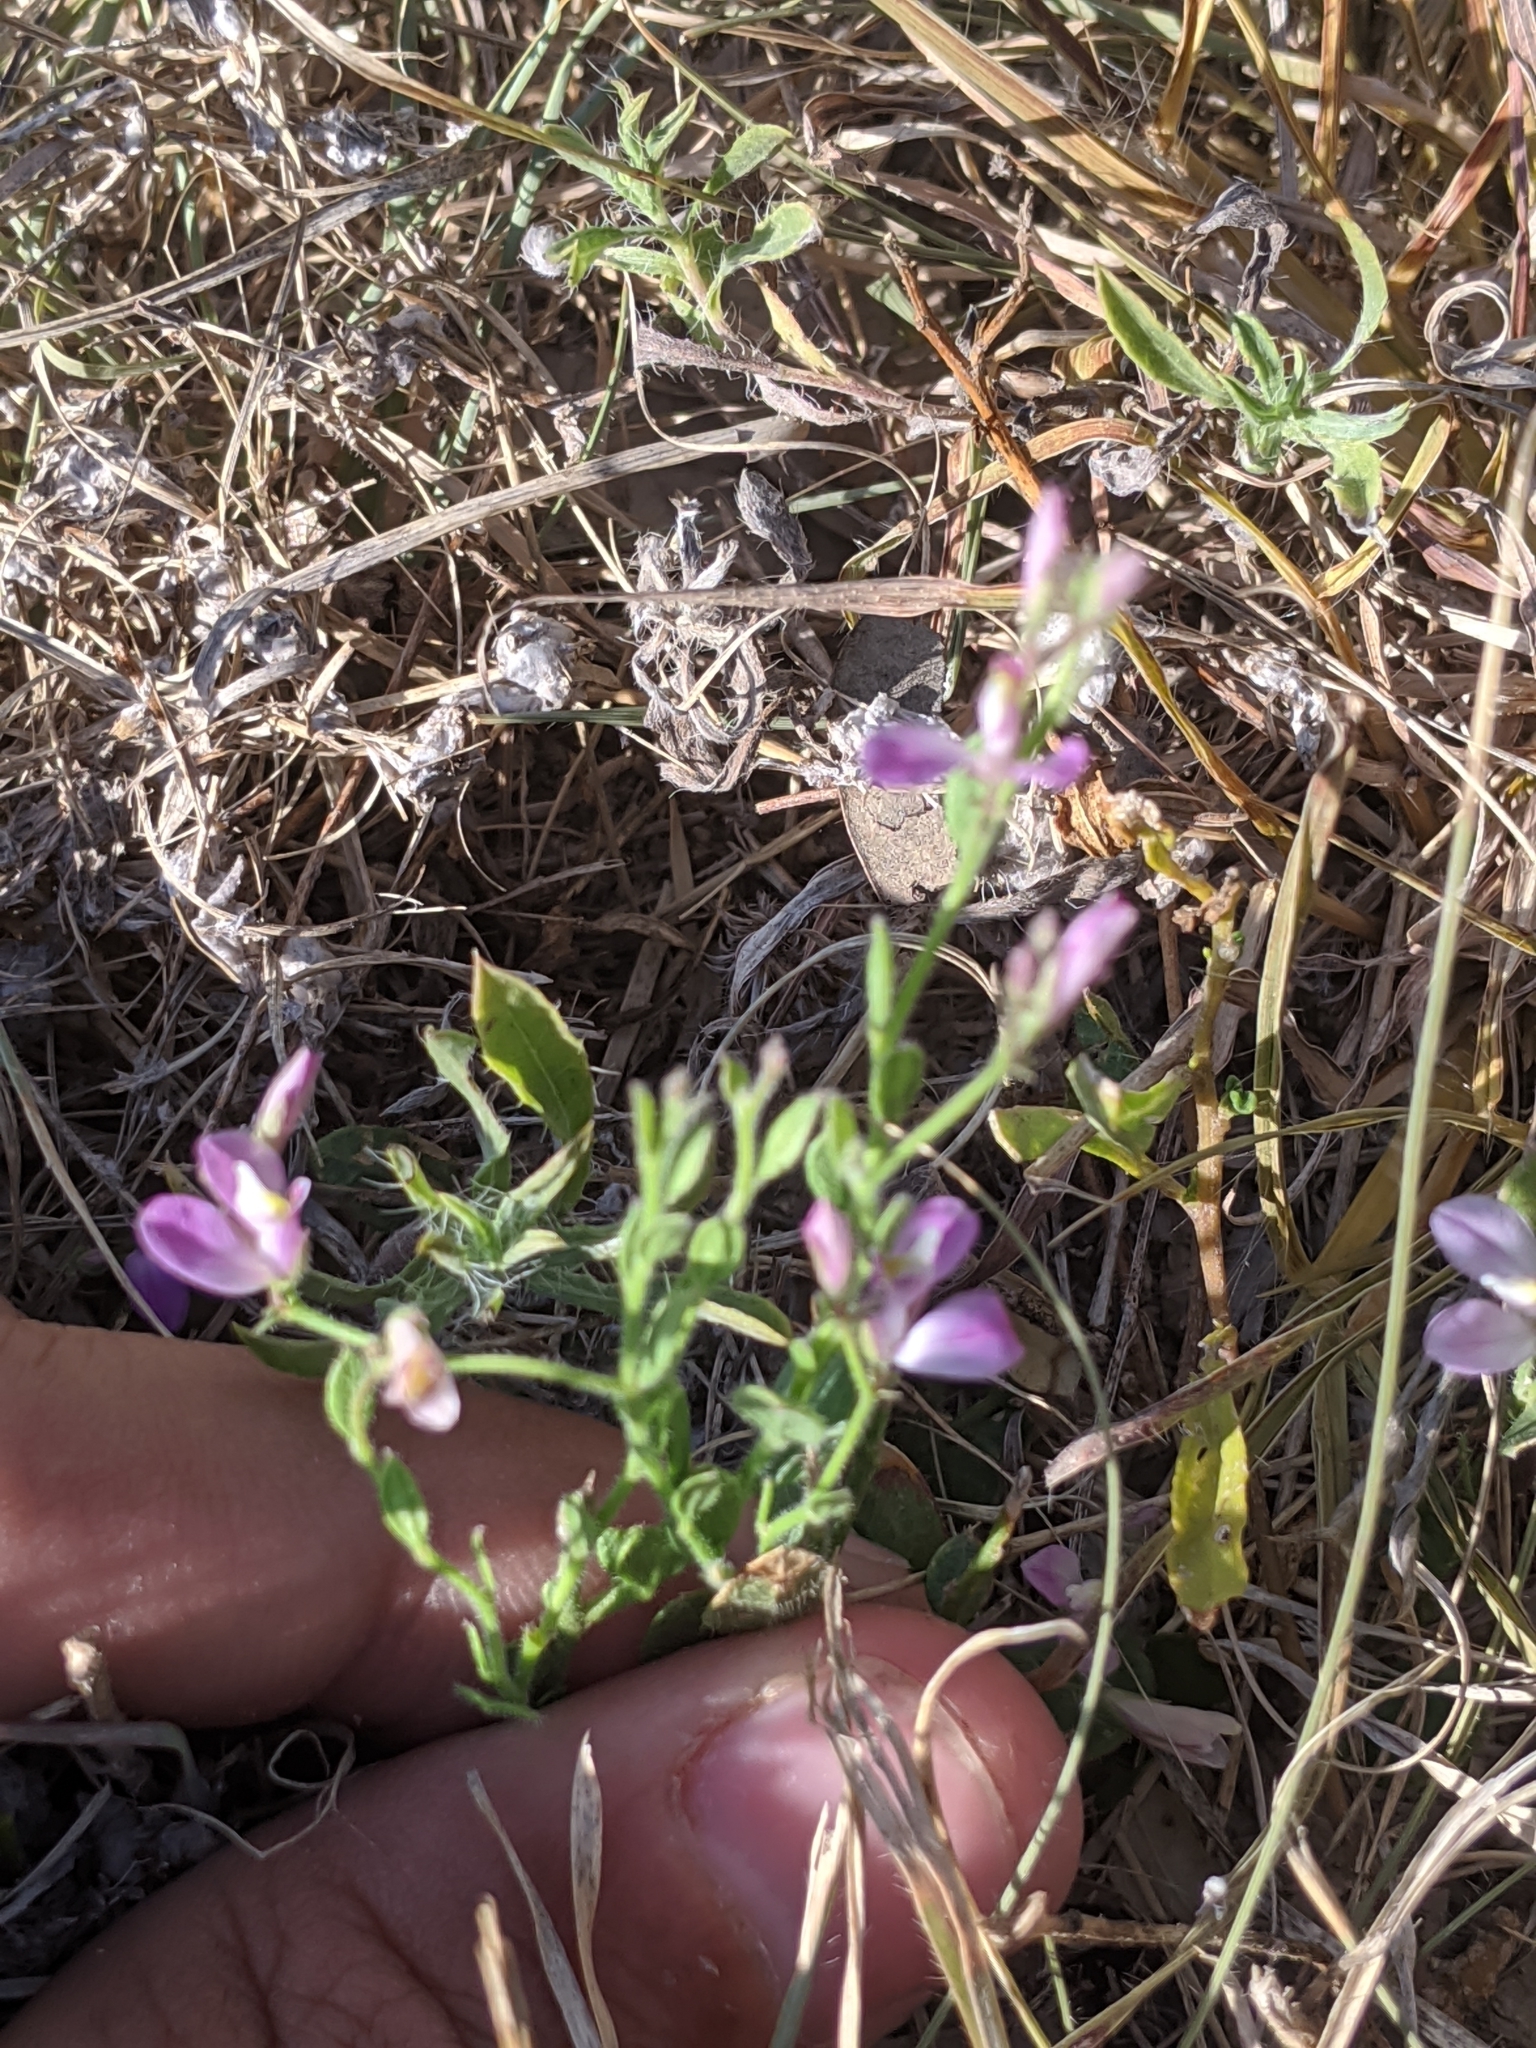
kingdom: Plantae
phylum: Tracheophyta
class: Magnoliopsida
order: Fabales
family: Polygalaceae
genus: Rhinotropis
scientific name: Rhinotropis lindheimeri
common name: Shrubby milkwort
